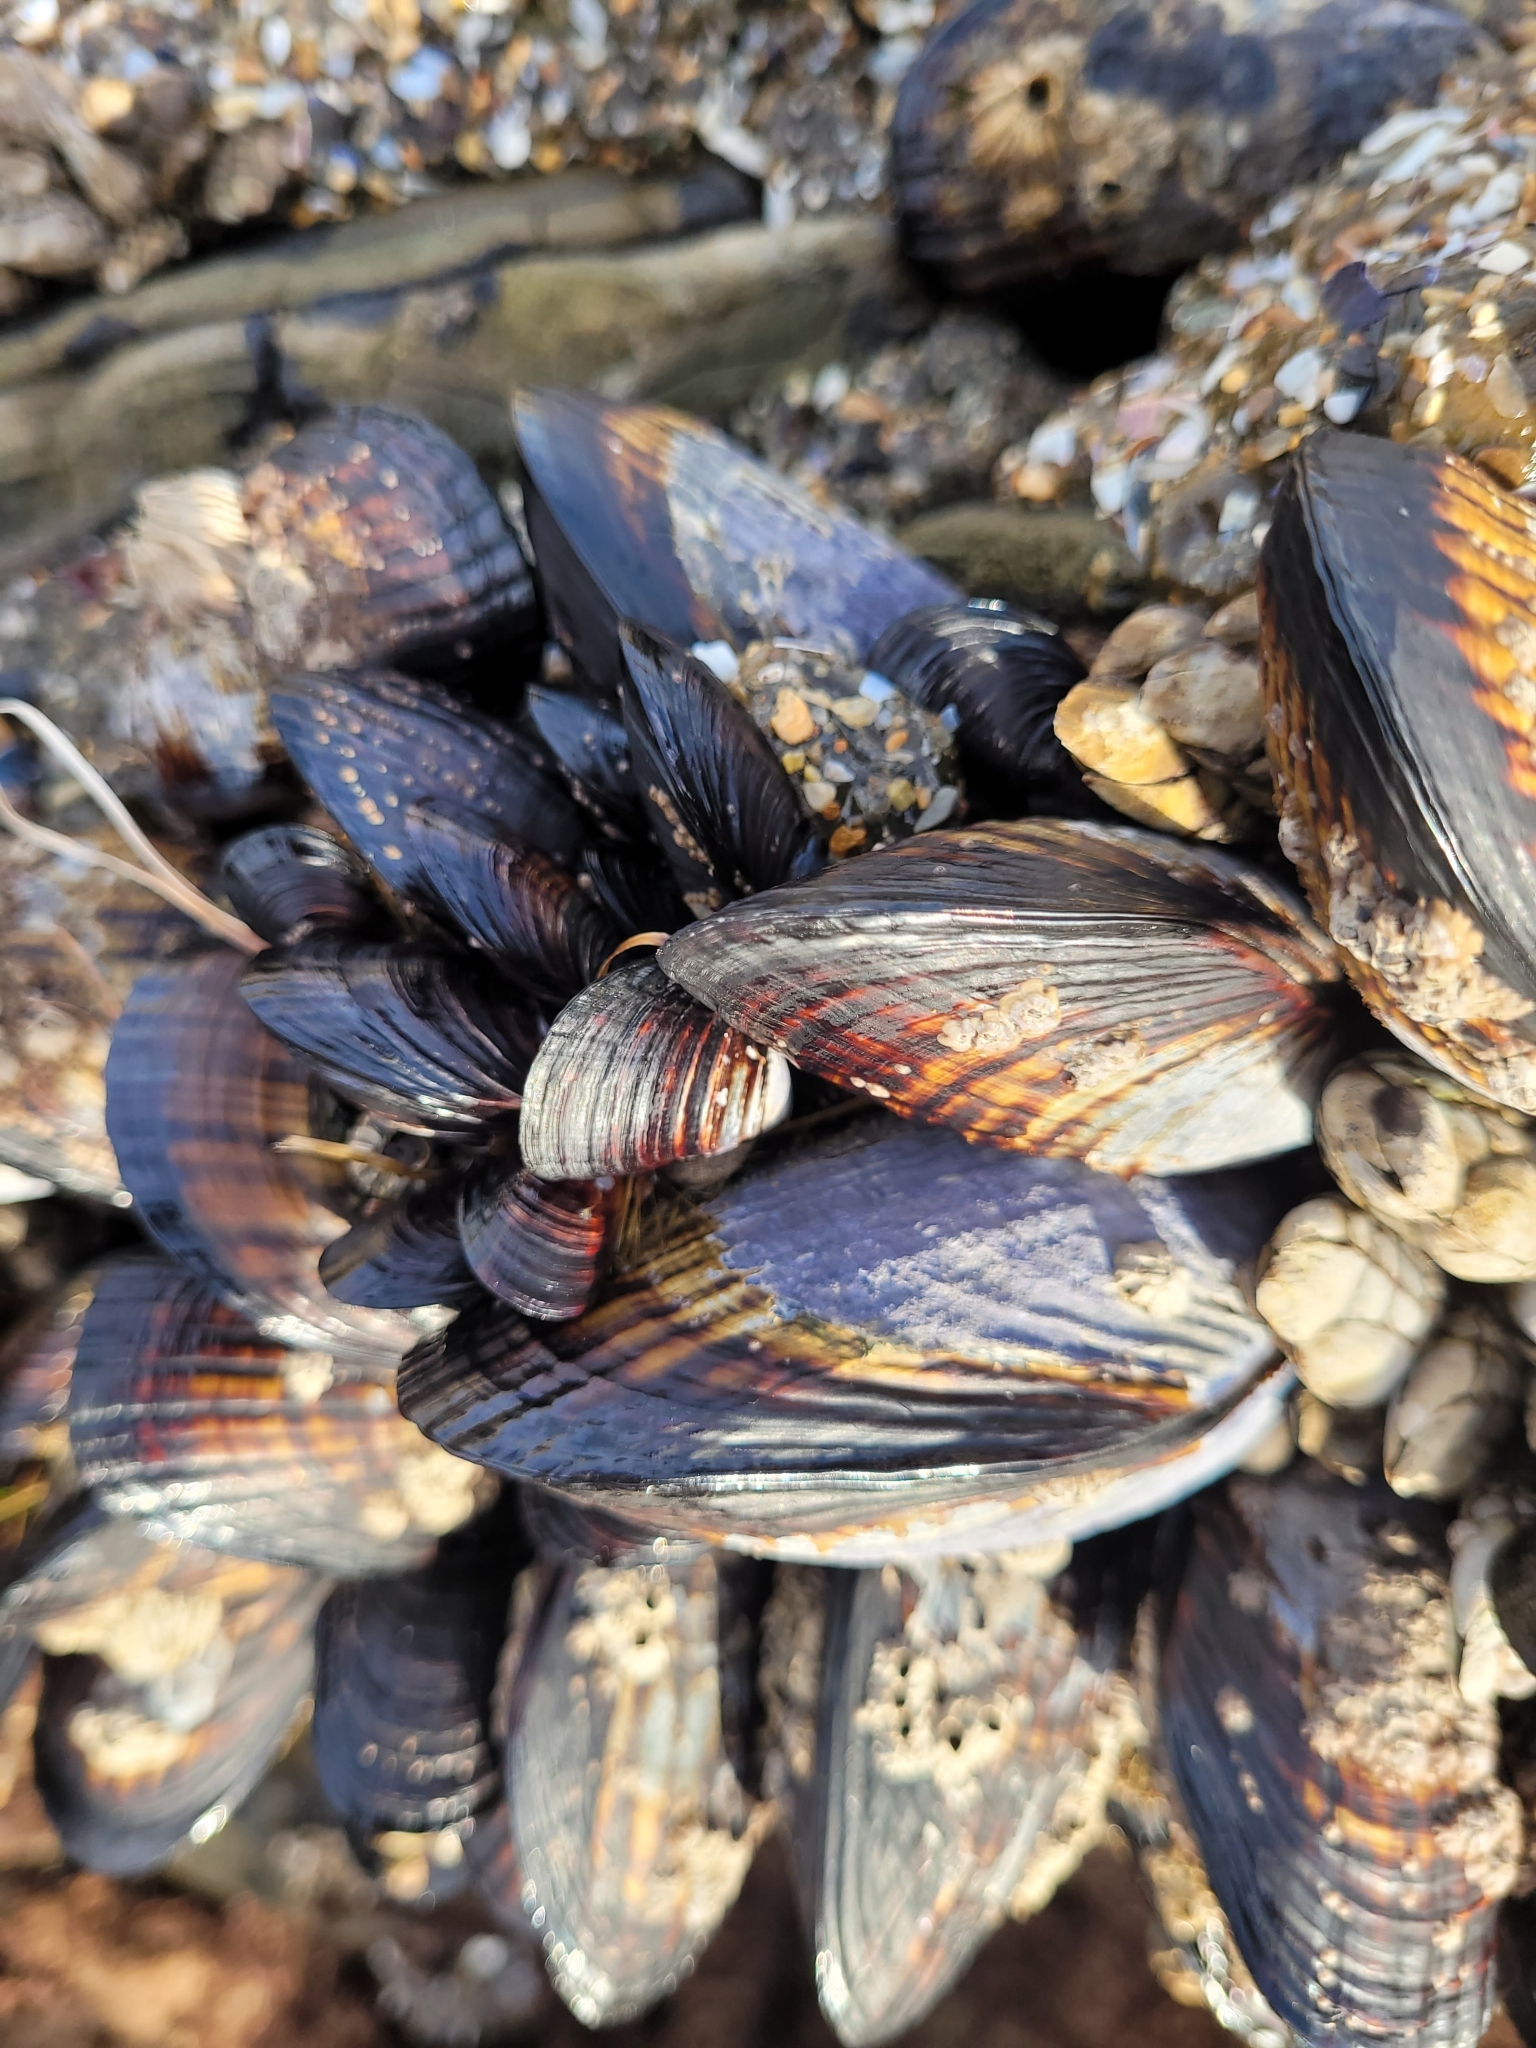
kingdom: Animalia
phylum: Mollusca
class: Bivalvia
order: Mytilida
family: Mytilidae
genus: Mytilus
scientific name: Mytilus californianus
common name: California mussel
